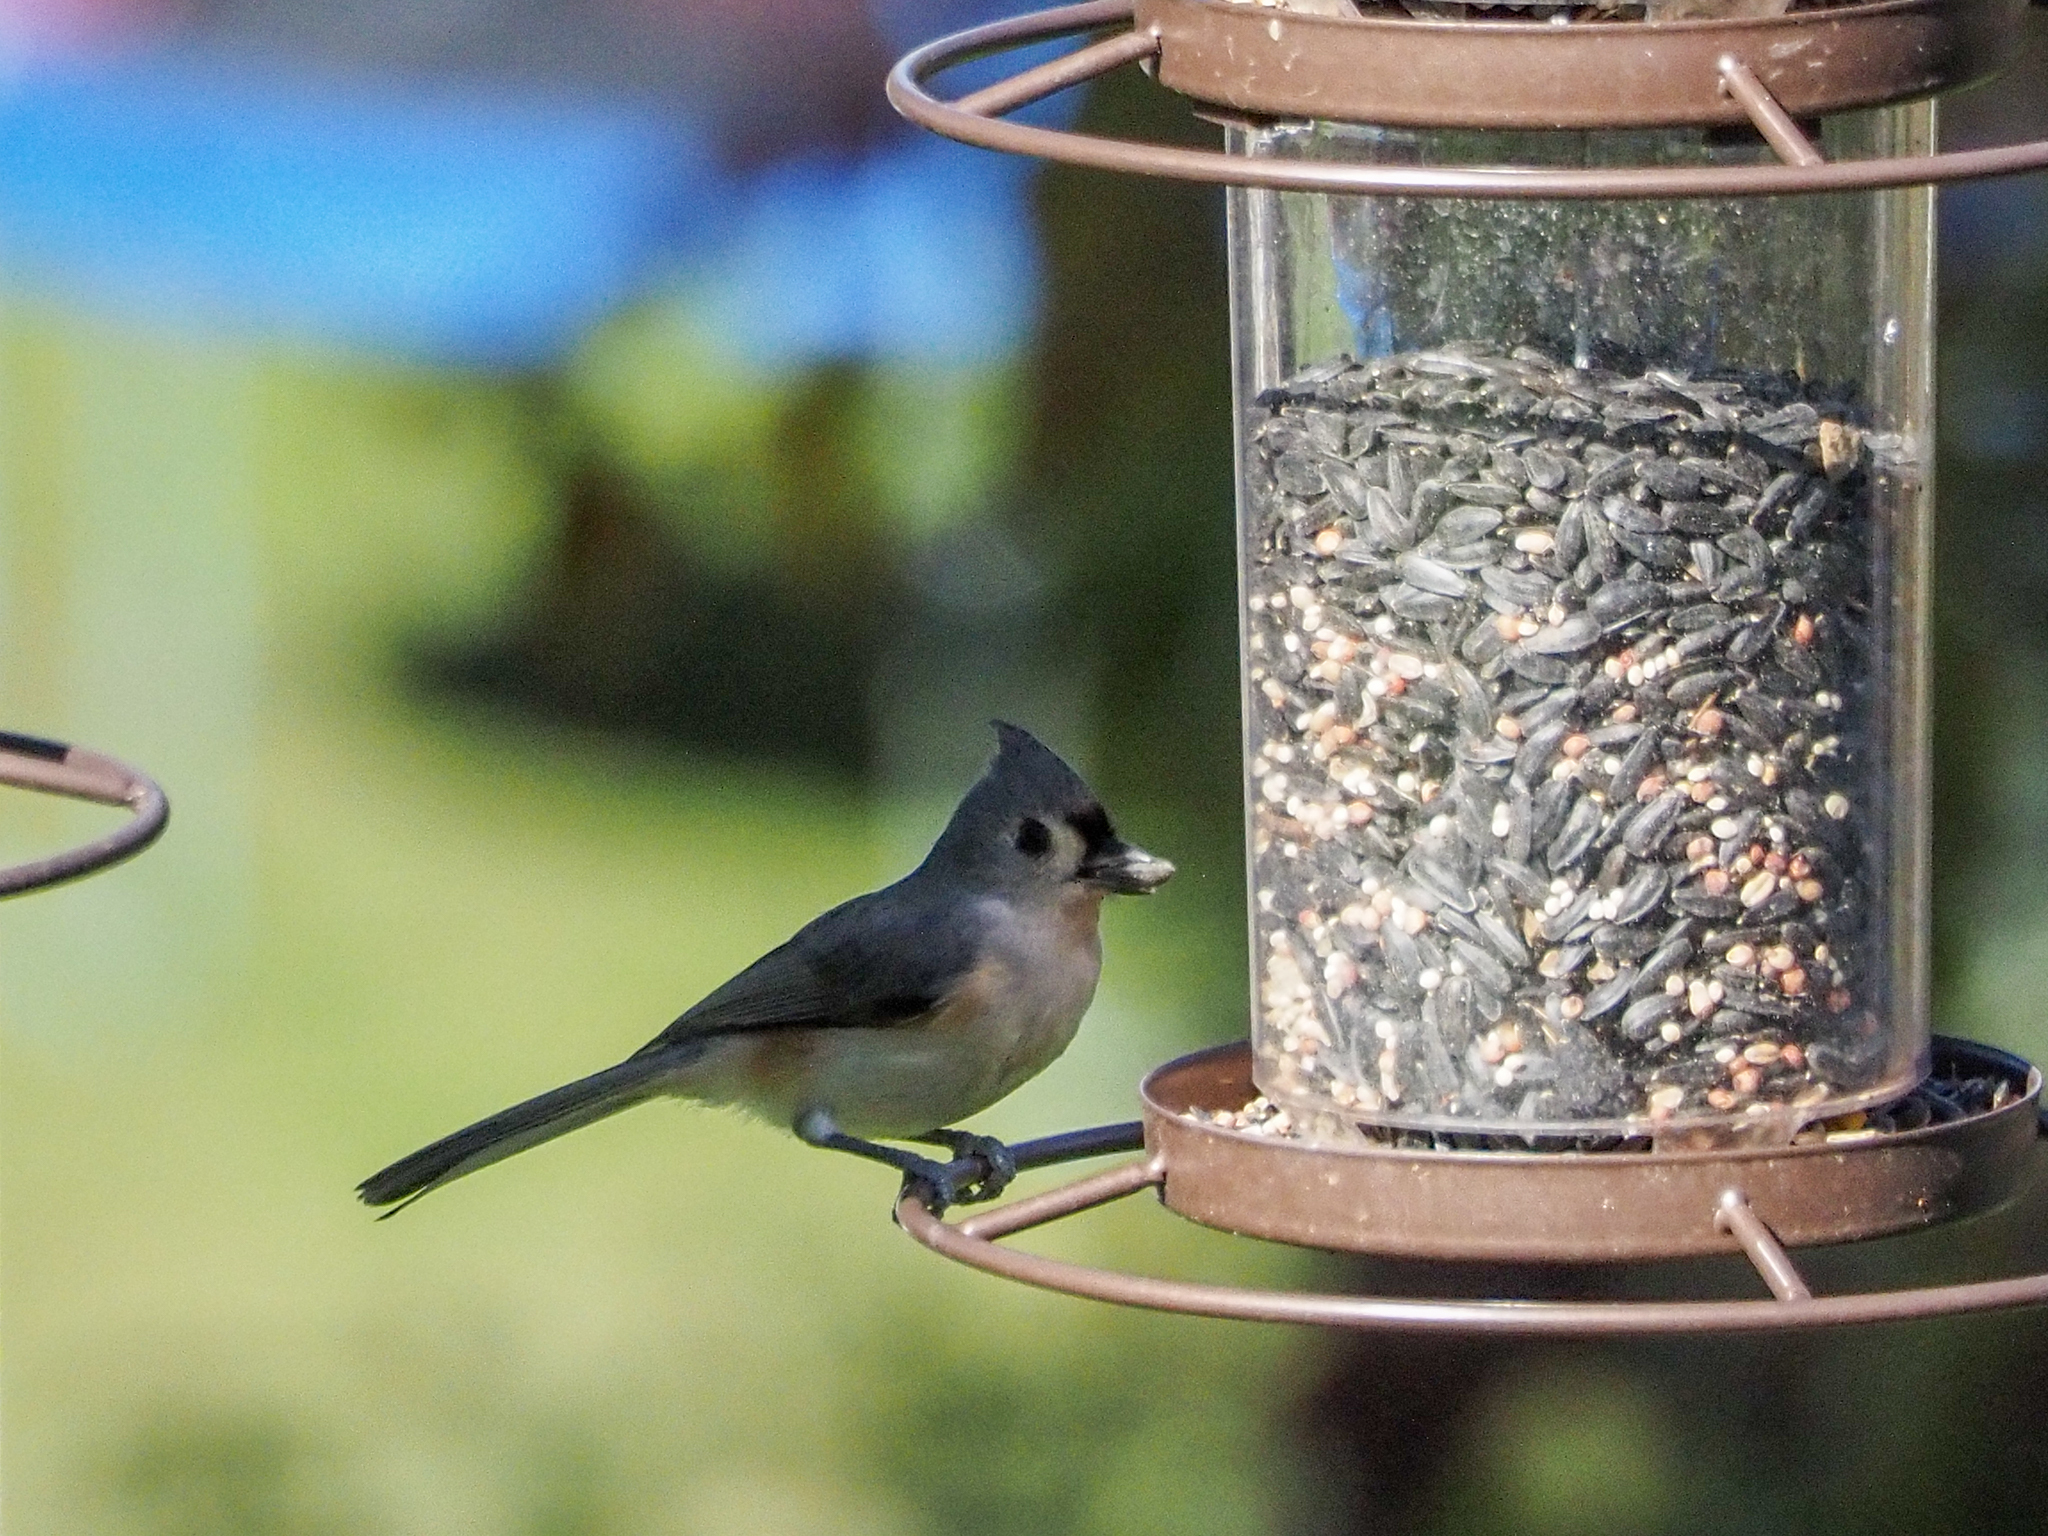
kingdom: Animalia
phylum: Chordata
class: Aves
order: Passeriformes
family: Paridae
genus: Baeolophus
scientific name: Baeolophus bicolor
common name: Tufted titmouse
